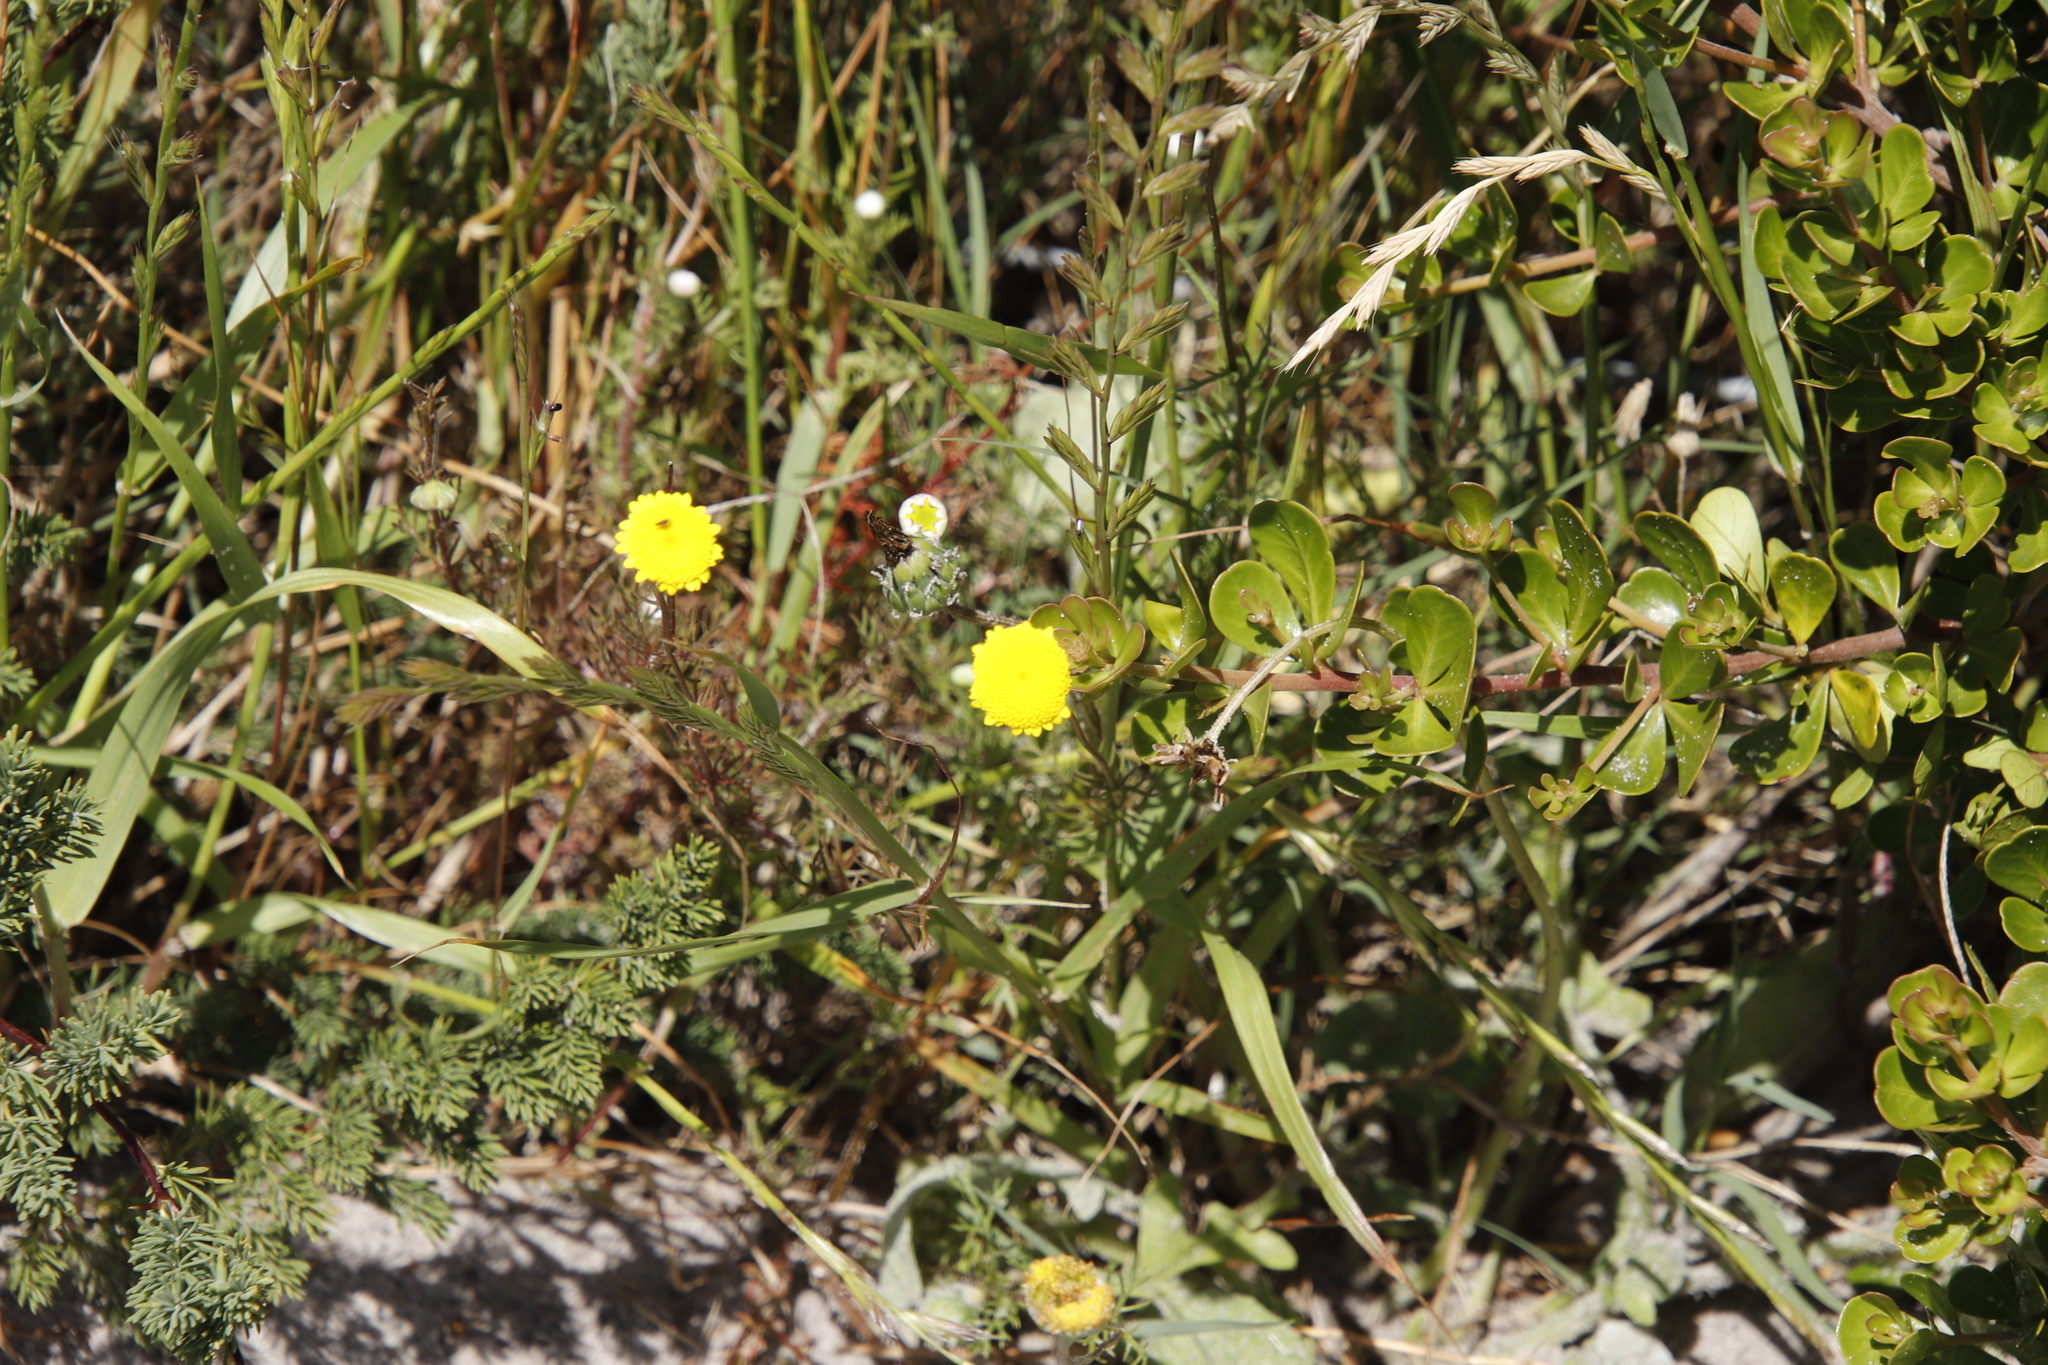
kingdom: Plantae
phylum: Tracheophyta
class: Magnoliopsida
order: Asterales
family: Asteraceae
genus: Cotula
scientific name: Cotula pruinosa
